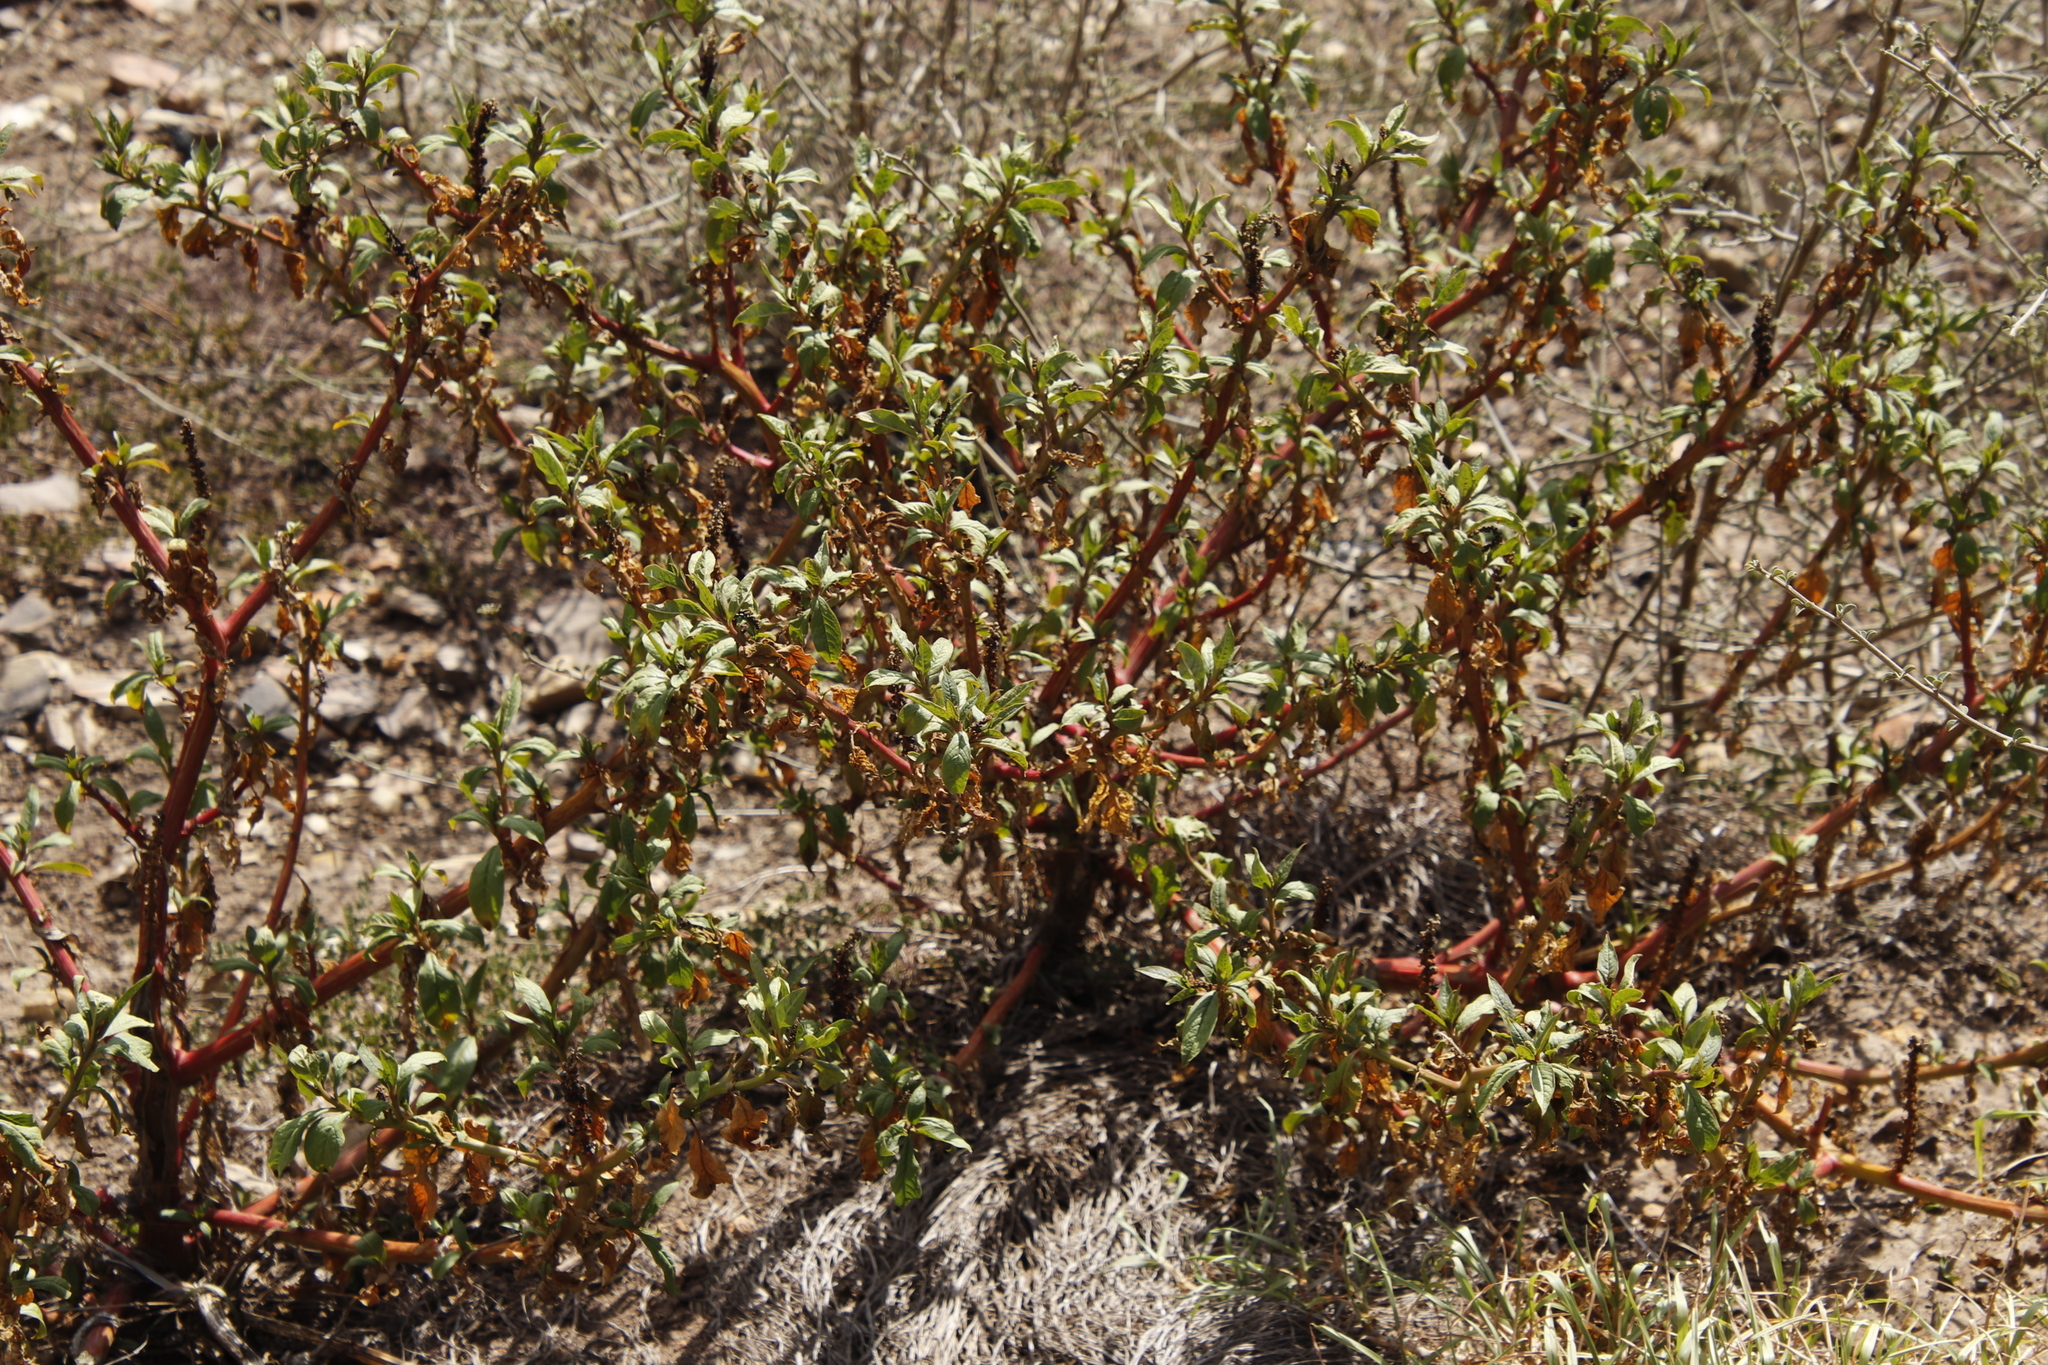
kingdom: Plantae
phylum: Tracheophyta
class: Magnoliopsida
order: Caryophyllales
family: Phytolaccaceae
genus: Phytolacca
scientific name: Phytolacca icosandra
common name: Button pokeweed
